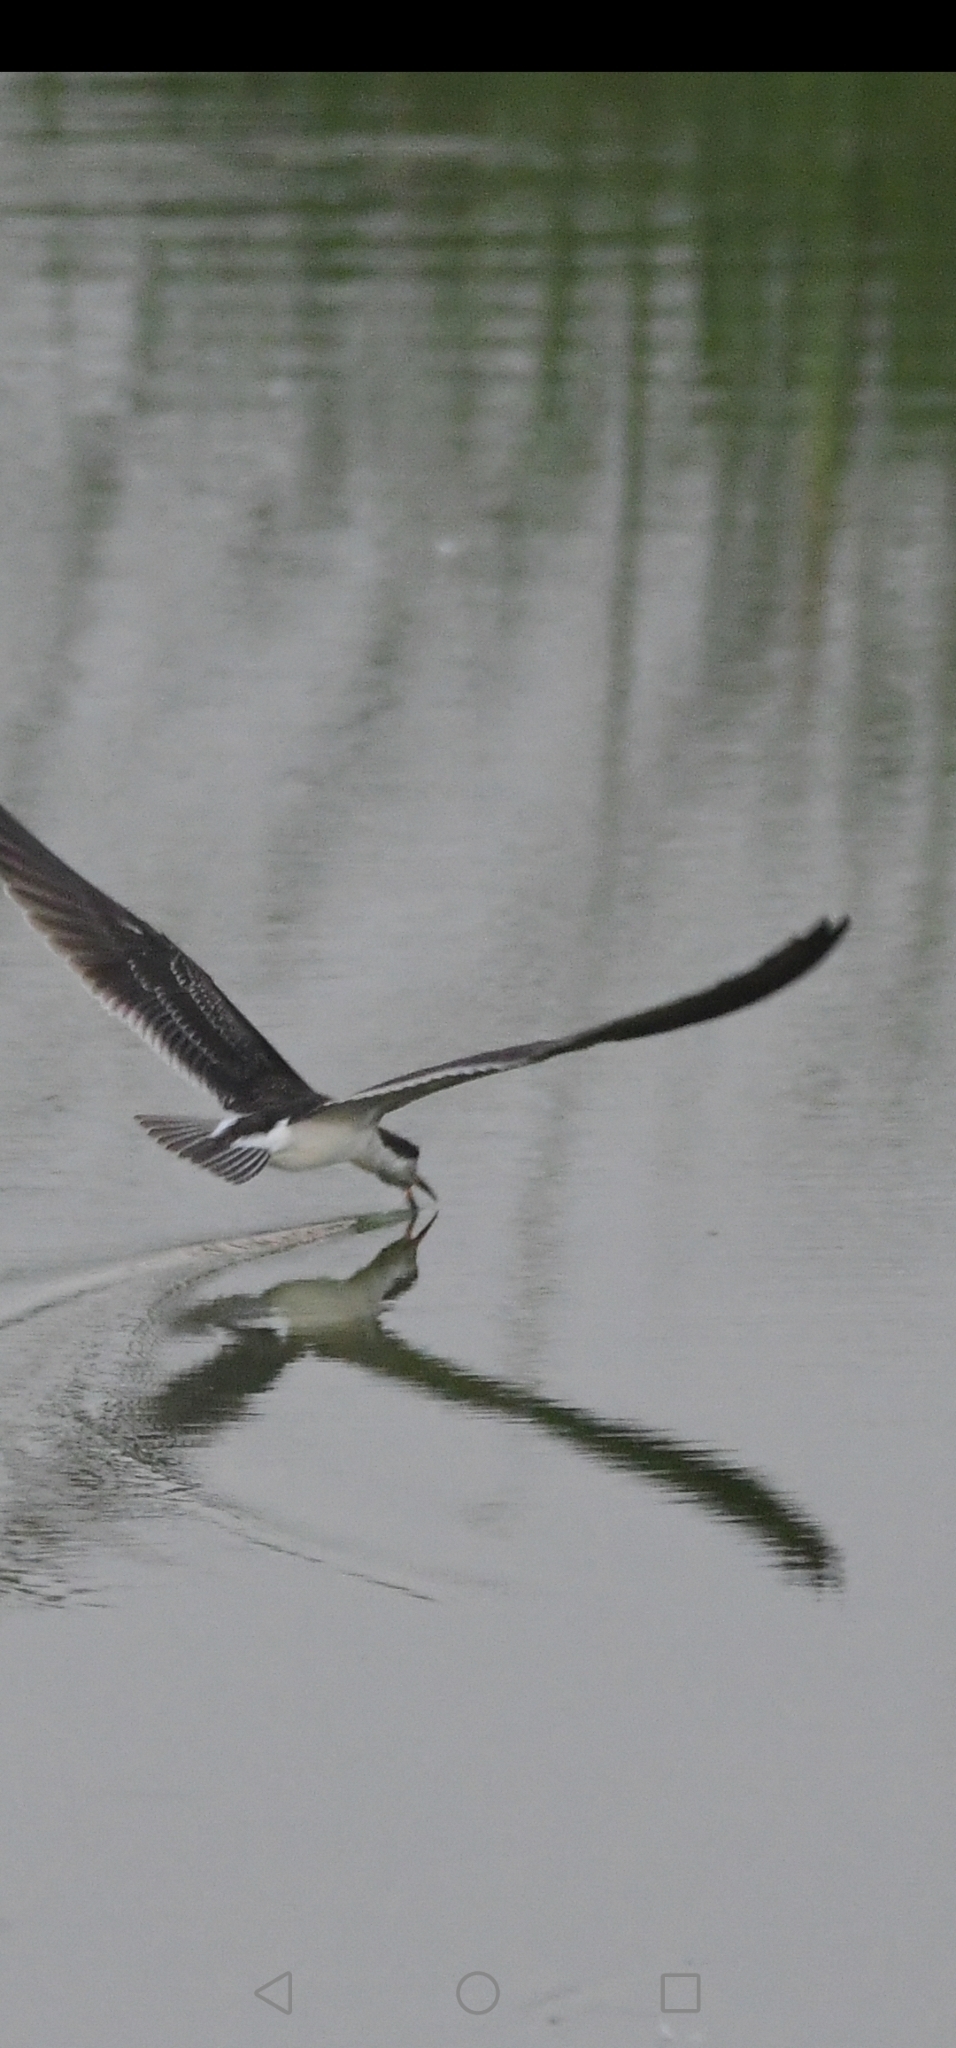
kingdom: Animalia
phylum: Chordata
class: Aves
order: Charadriiformes
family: Laridae
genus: Rynchops
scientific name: Rynchops niger
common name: Black skimmer
